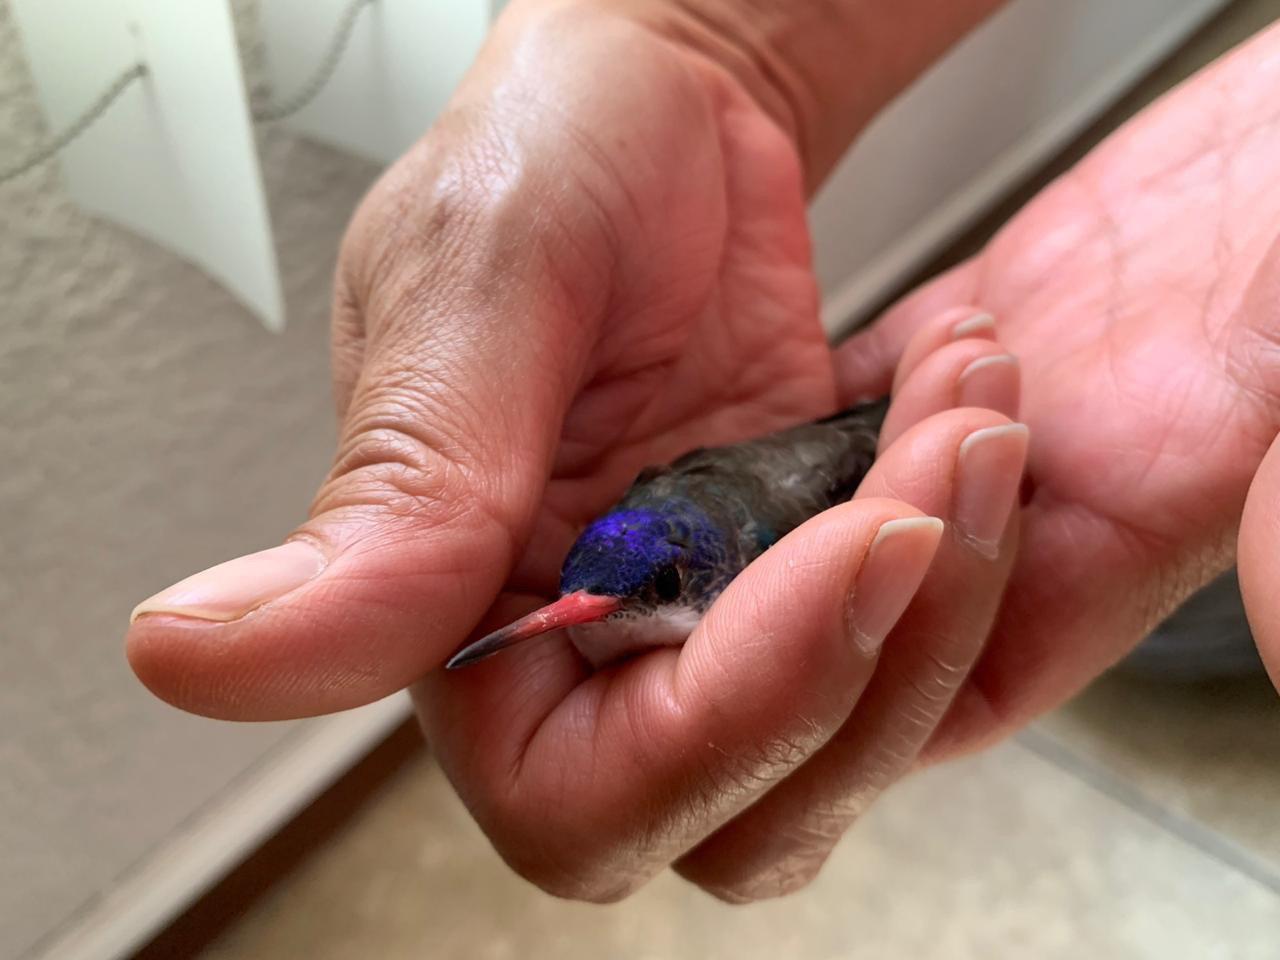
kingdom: Animalia
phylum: Chordata
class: Aves
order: Apodiformes
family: Trochilidae
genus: Leucolia
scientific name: Leucolia violiceps
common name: Violet-crowned hummingbird
